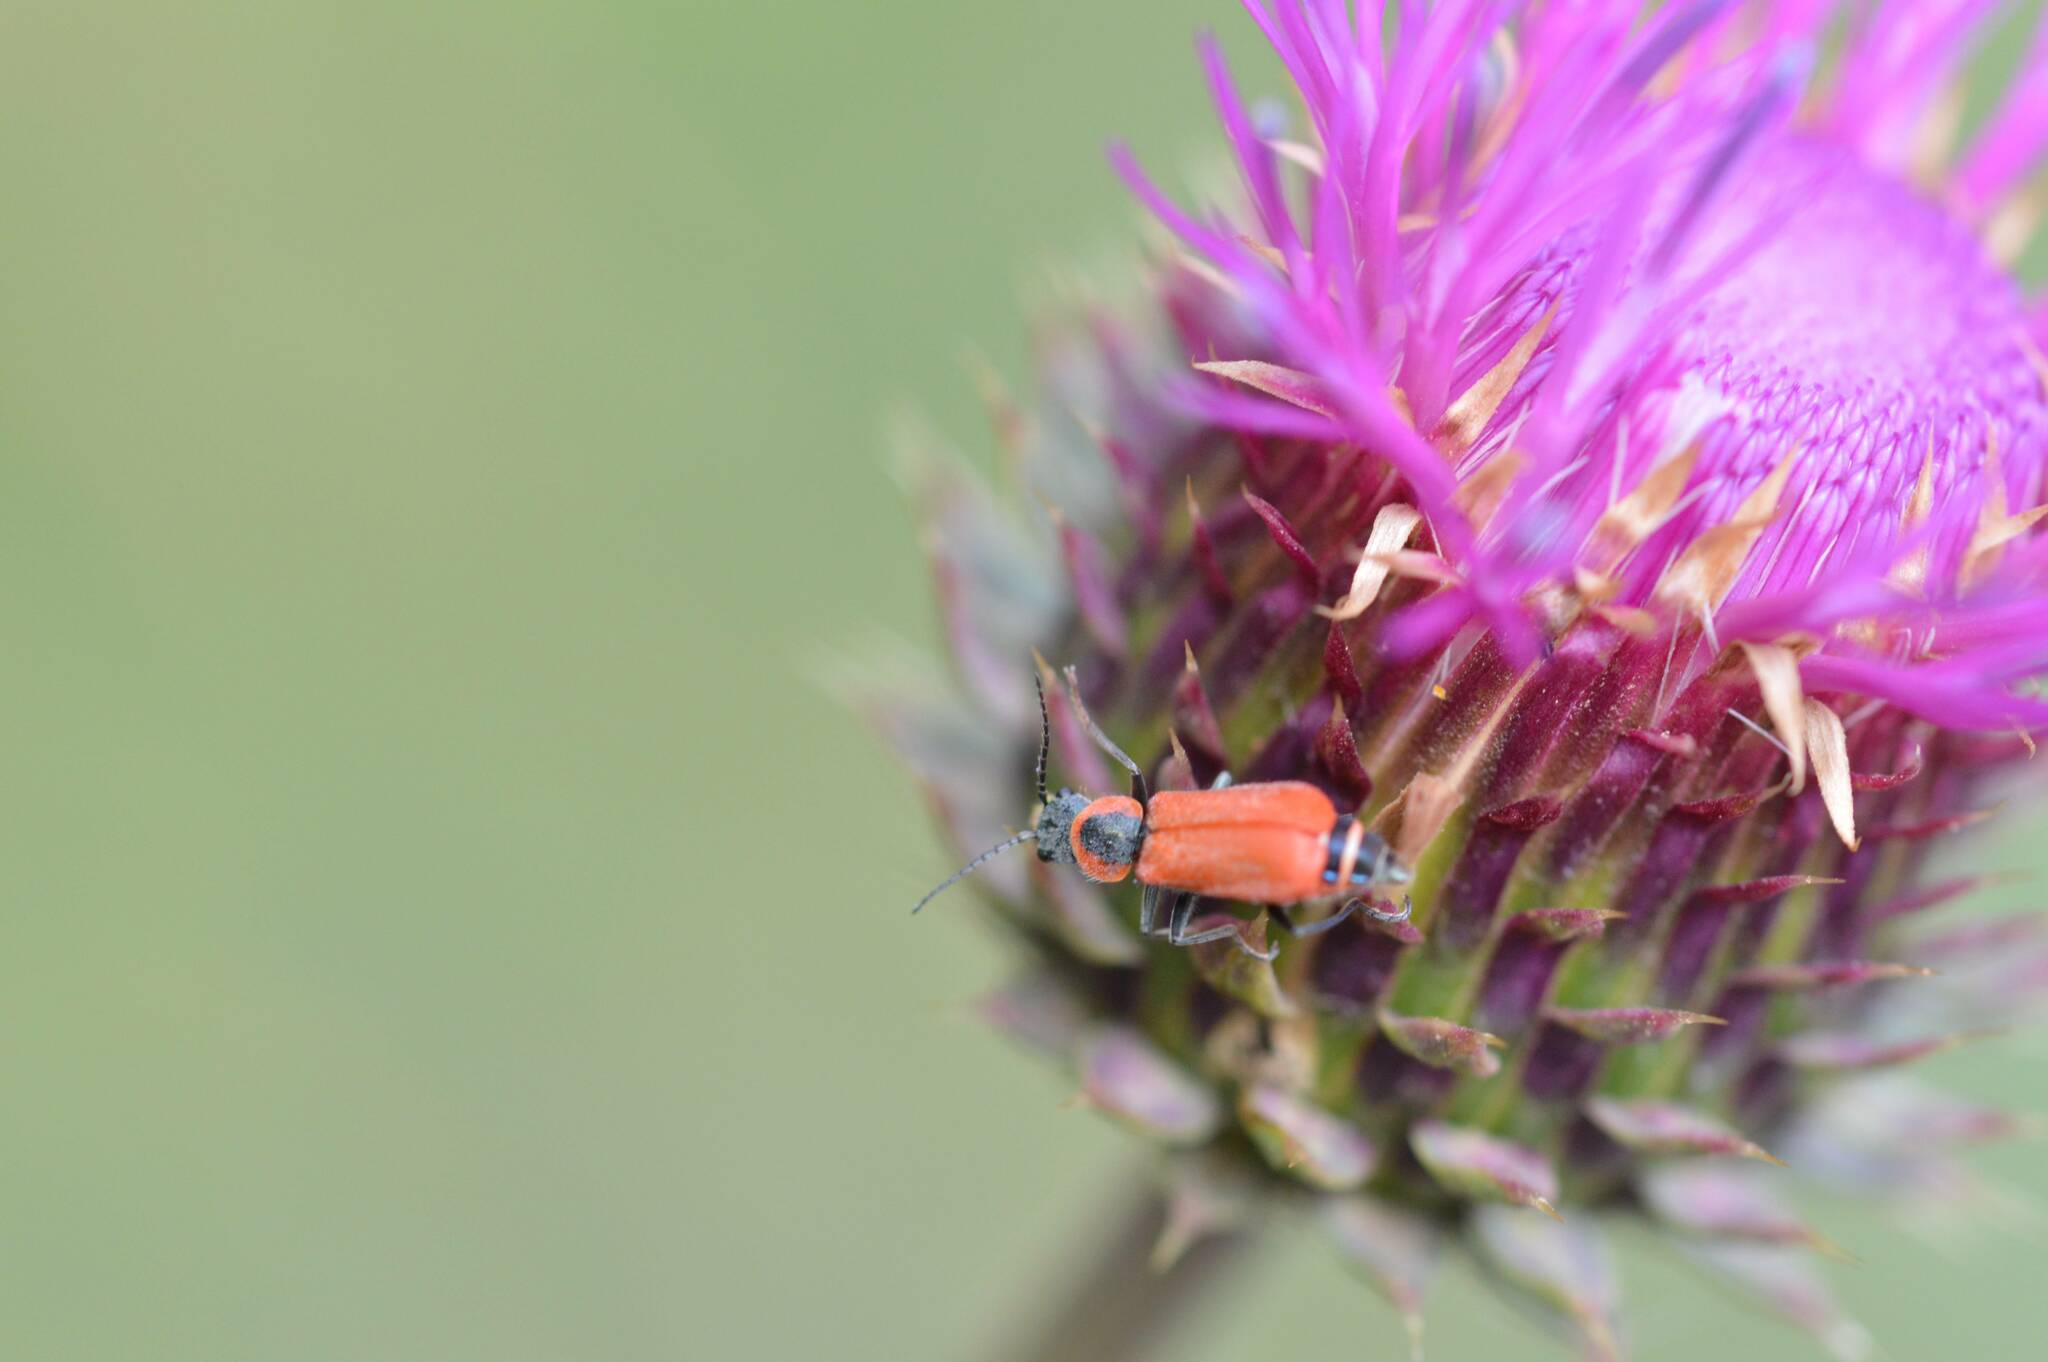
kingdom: Animalia
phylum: Arthropoda
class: Insecta
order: Coleoptera
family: Malachiidae
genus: Clanoptilus
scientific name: Clanoptilus rufus
